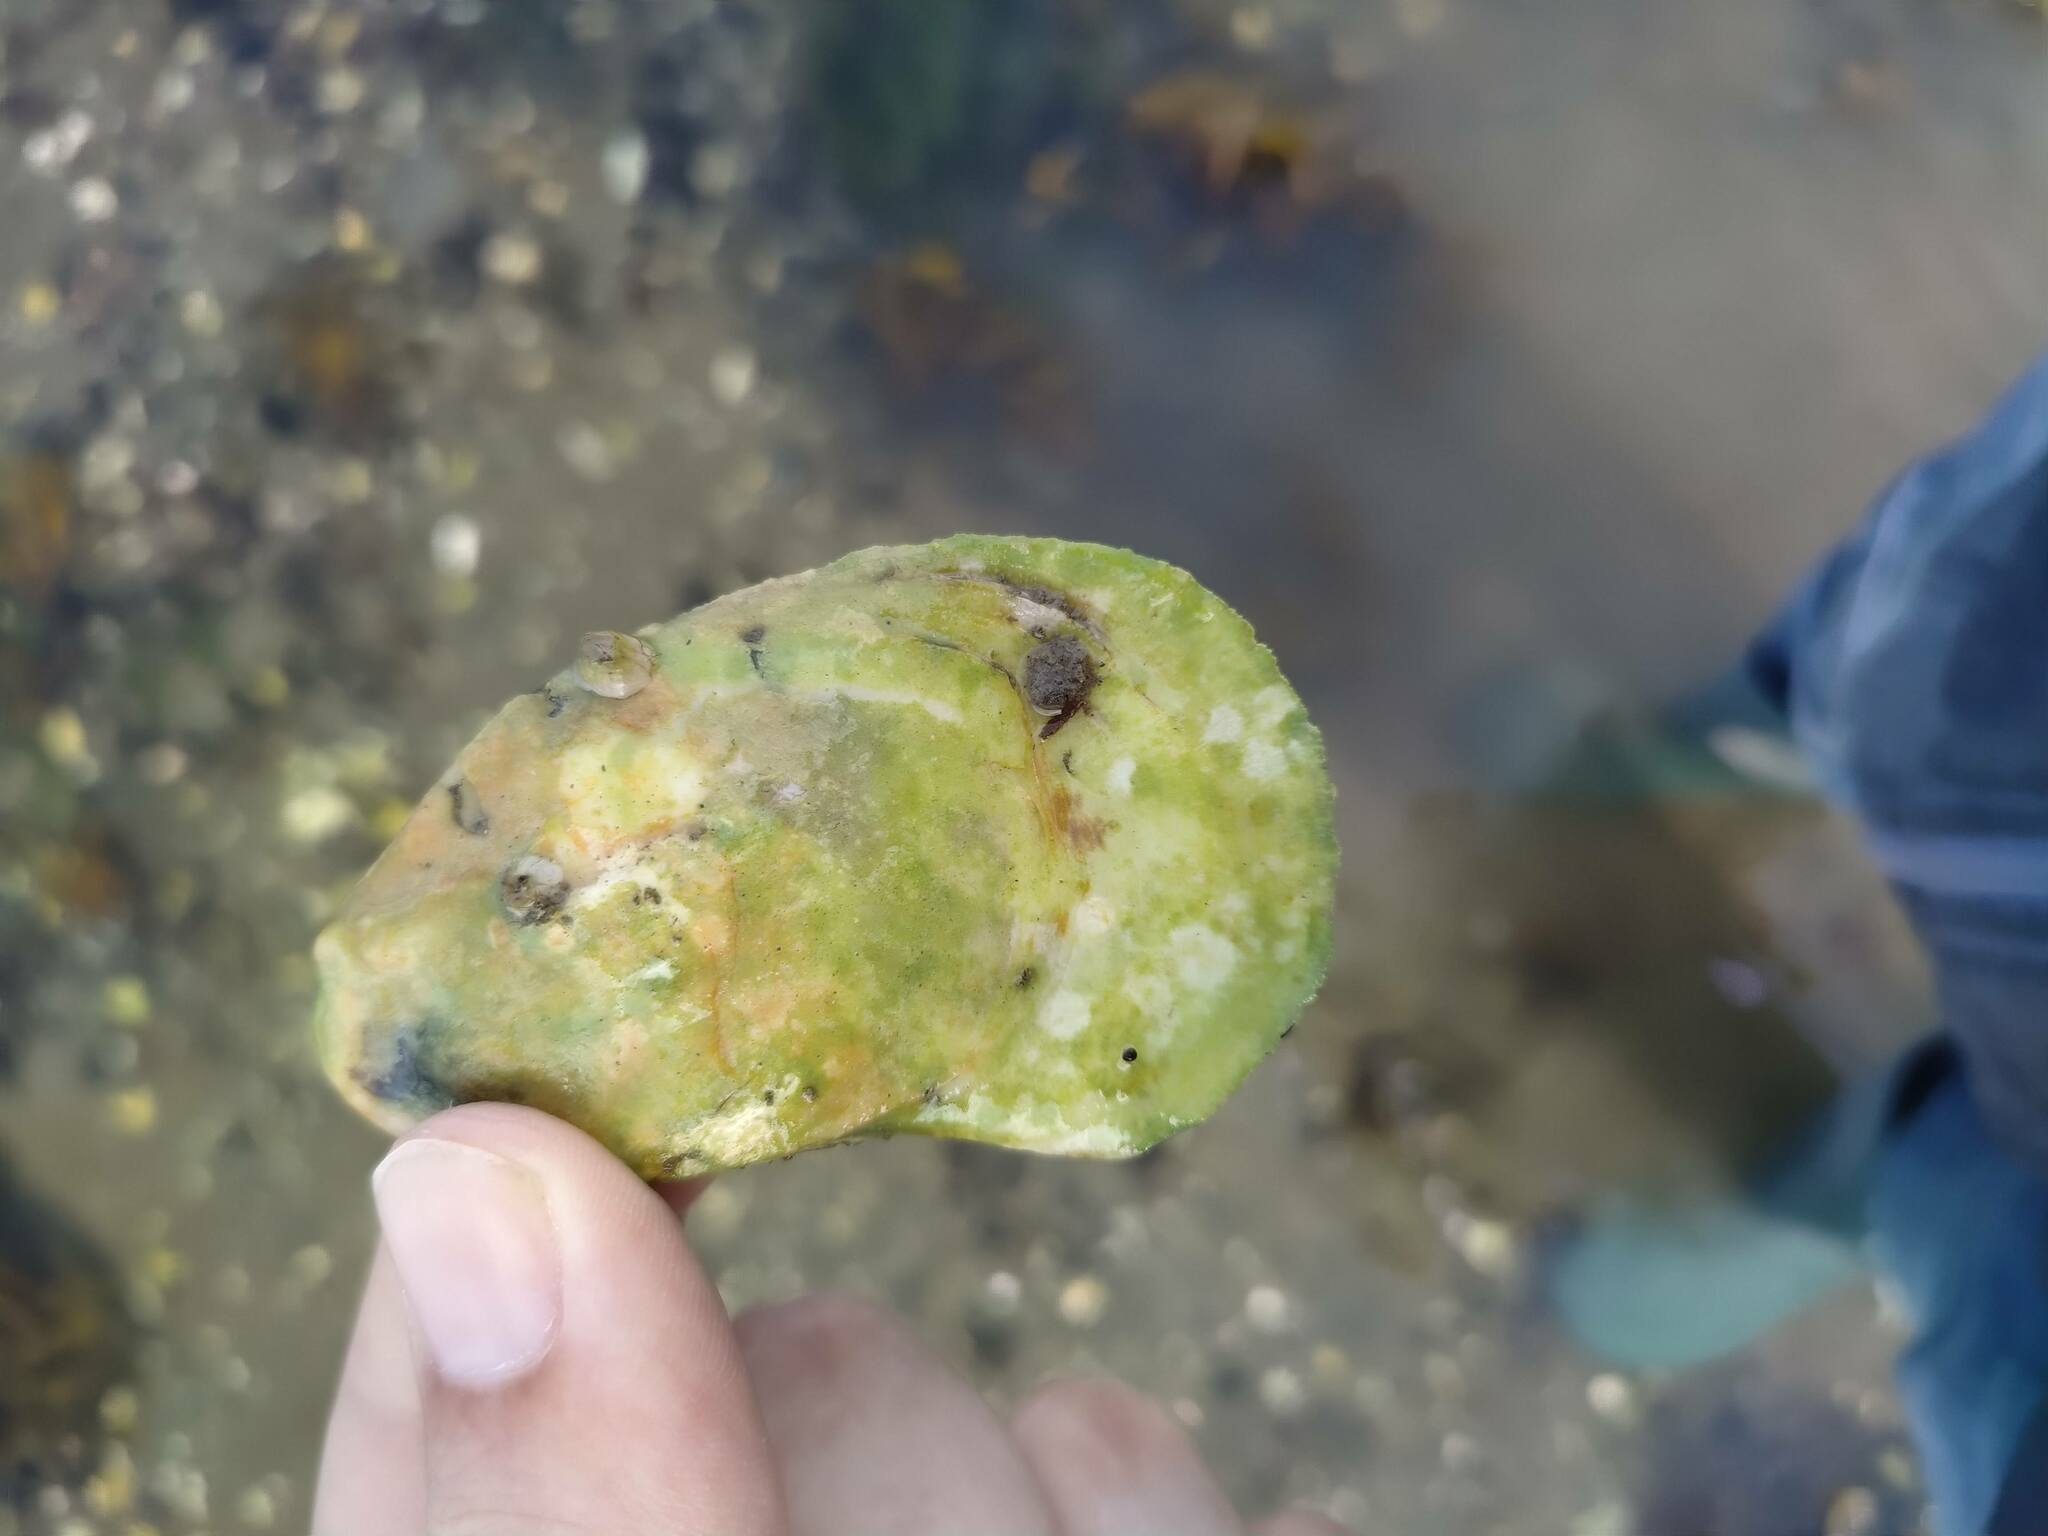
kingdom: Animalia
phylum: Mollusca
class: Bivalvia
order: Ostreida
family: Ostreidae
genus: Crassostrea
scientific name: Crassostrea virginica
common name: American oyster
